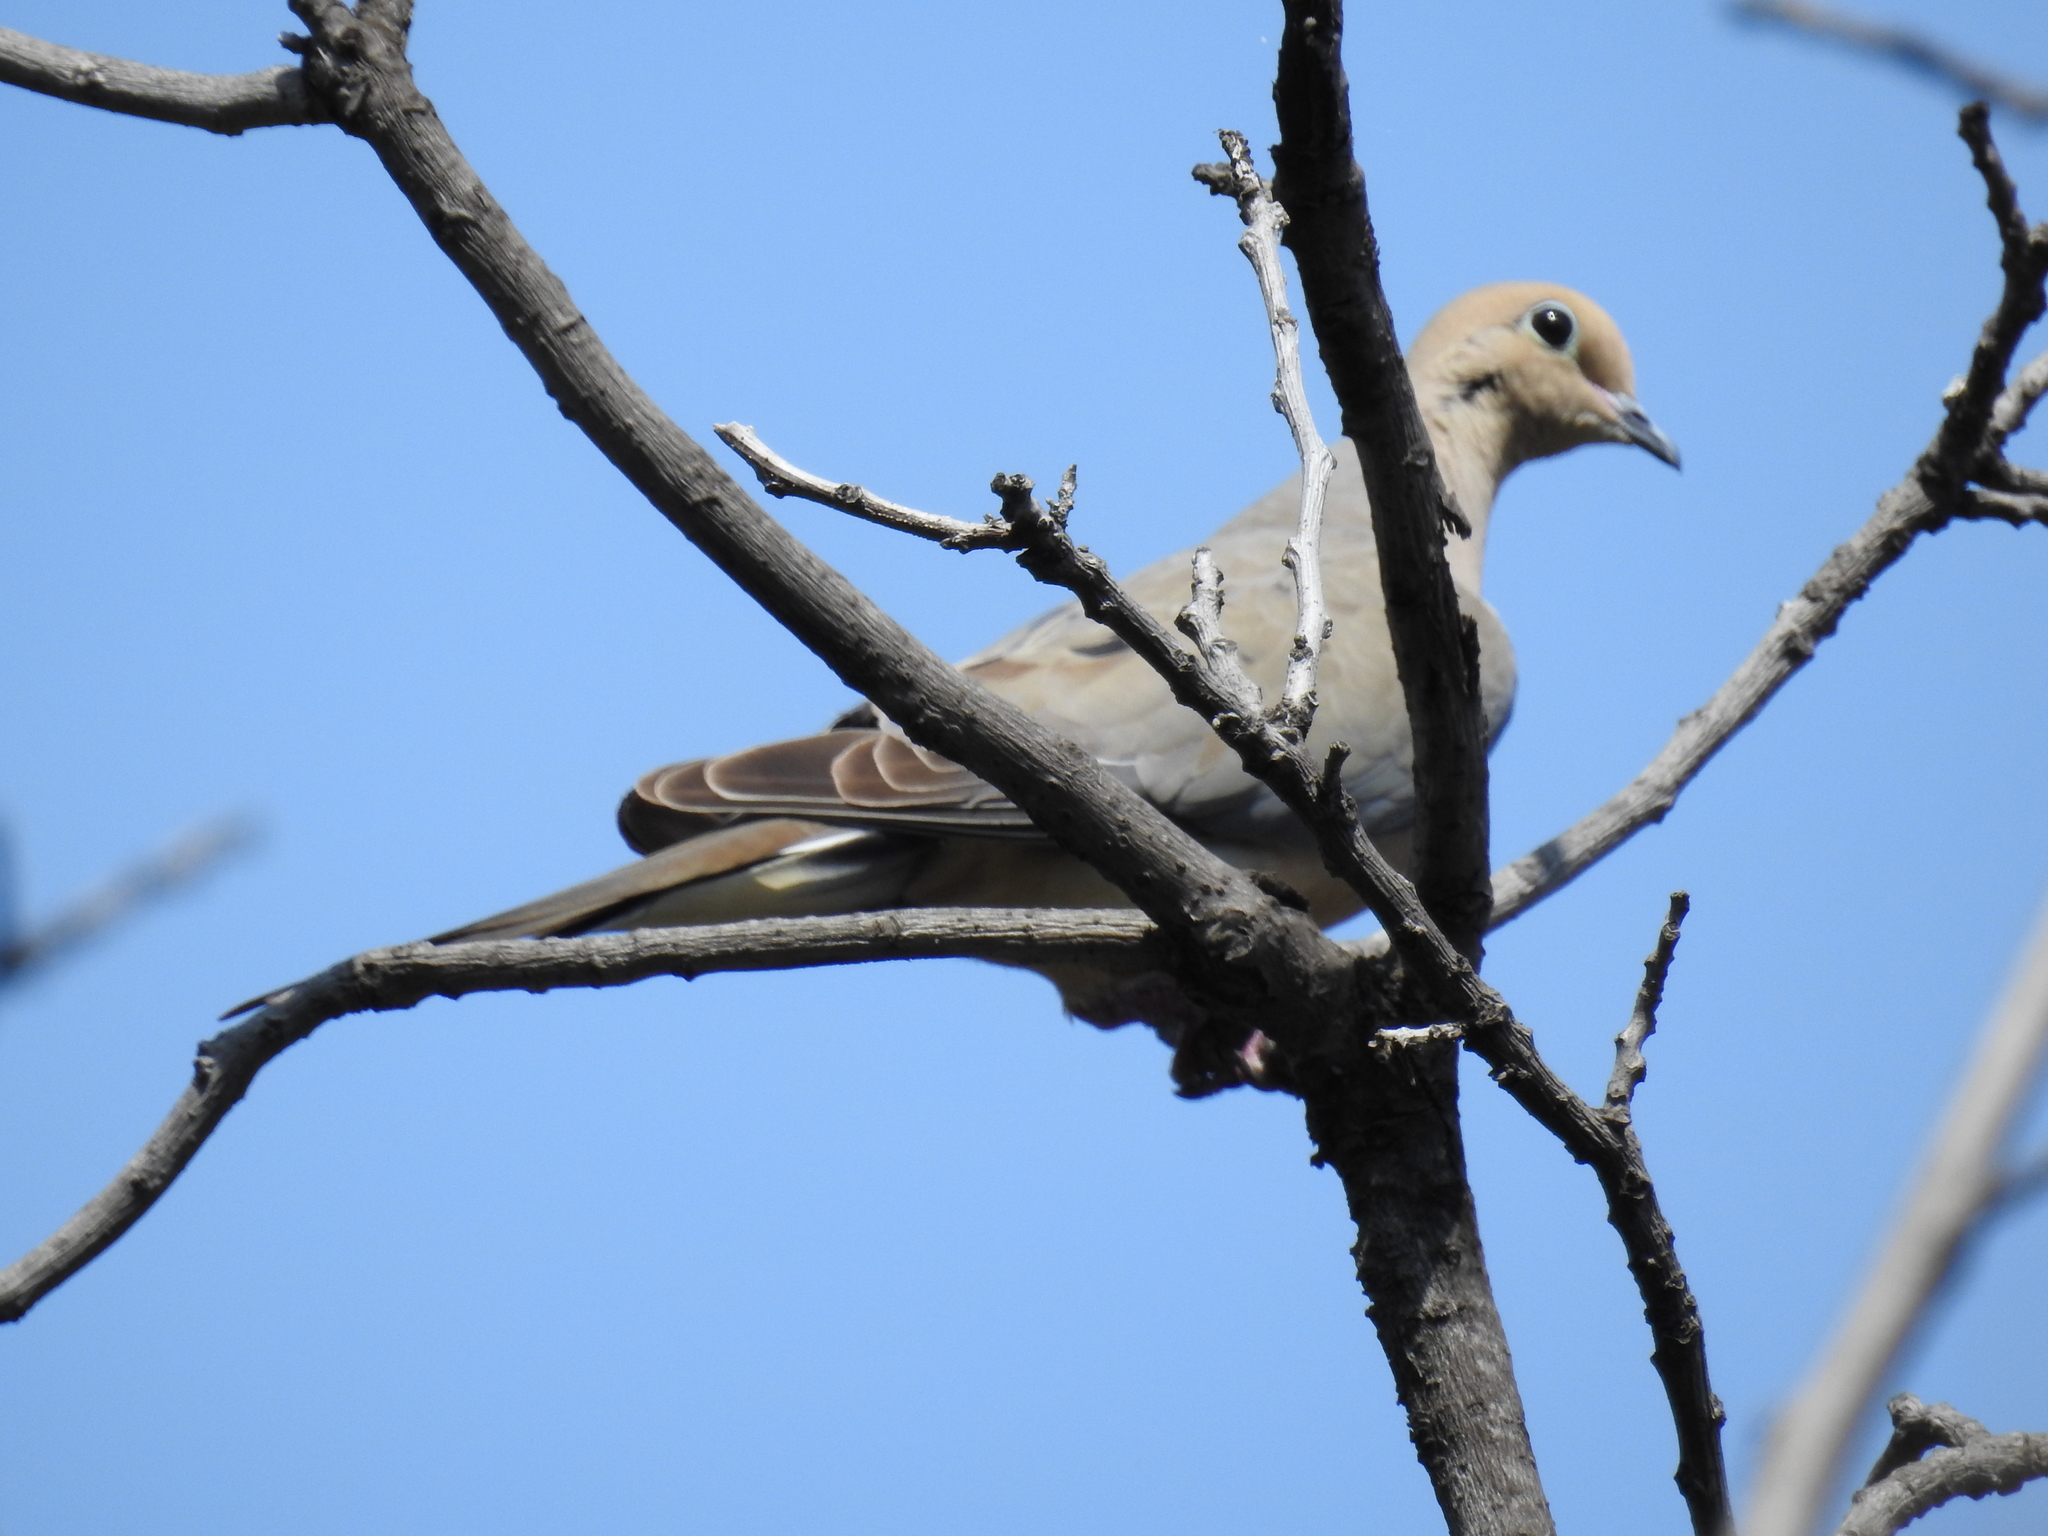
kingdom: Animalia
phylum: Chordata
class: Aves
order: Columbiformes
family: Columbidae
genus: Zenaida
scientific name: Zenaida macroura
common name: Mourning dove
